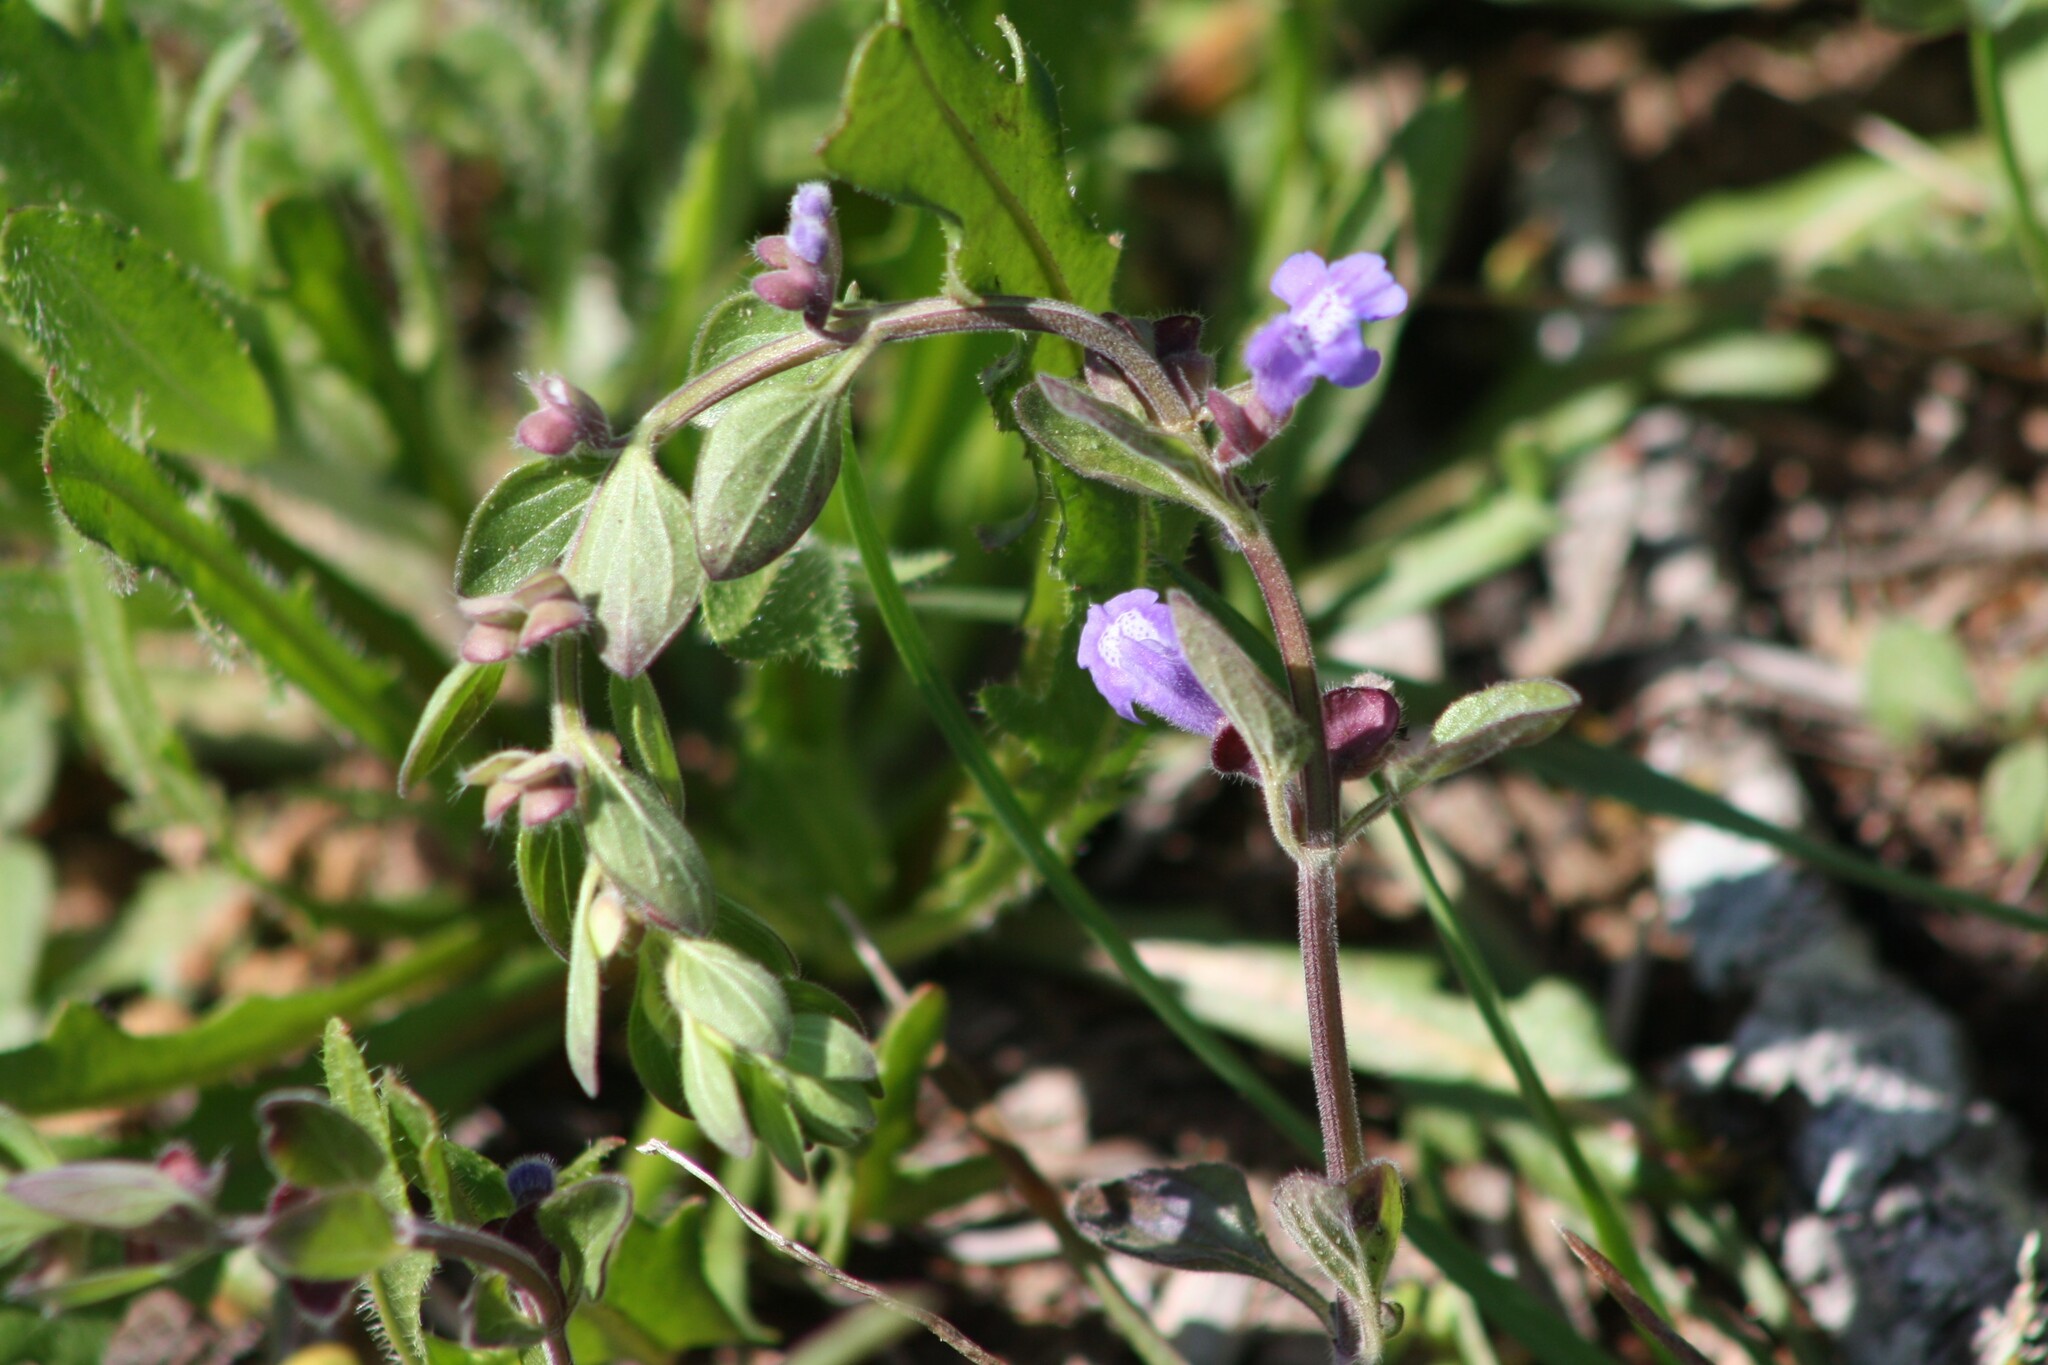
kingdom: Plantae
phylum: Tracheophyta
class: Magnoliopsida
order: Lamiales
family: Lamiaceae
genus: Scutellaria
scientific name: Scutellaria drummondii
